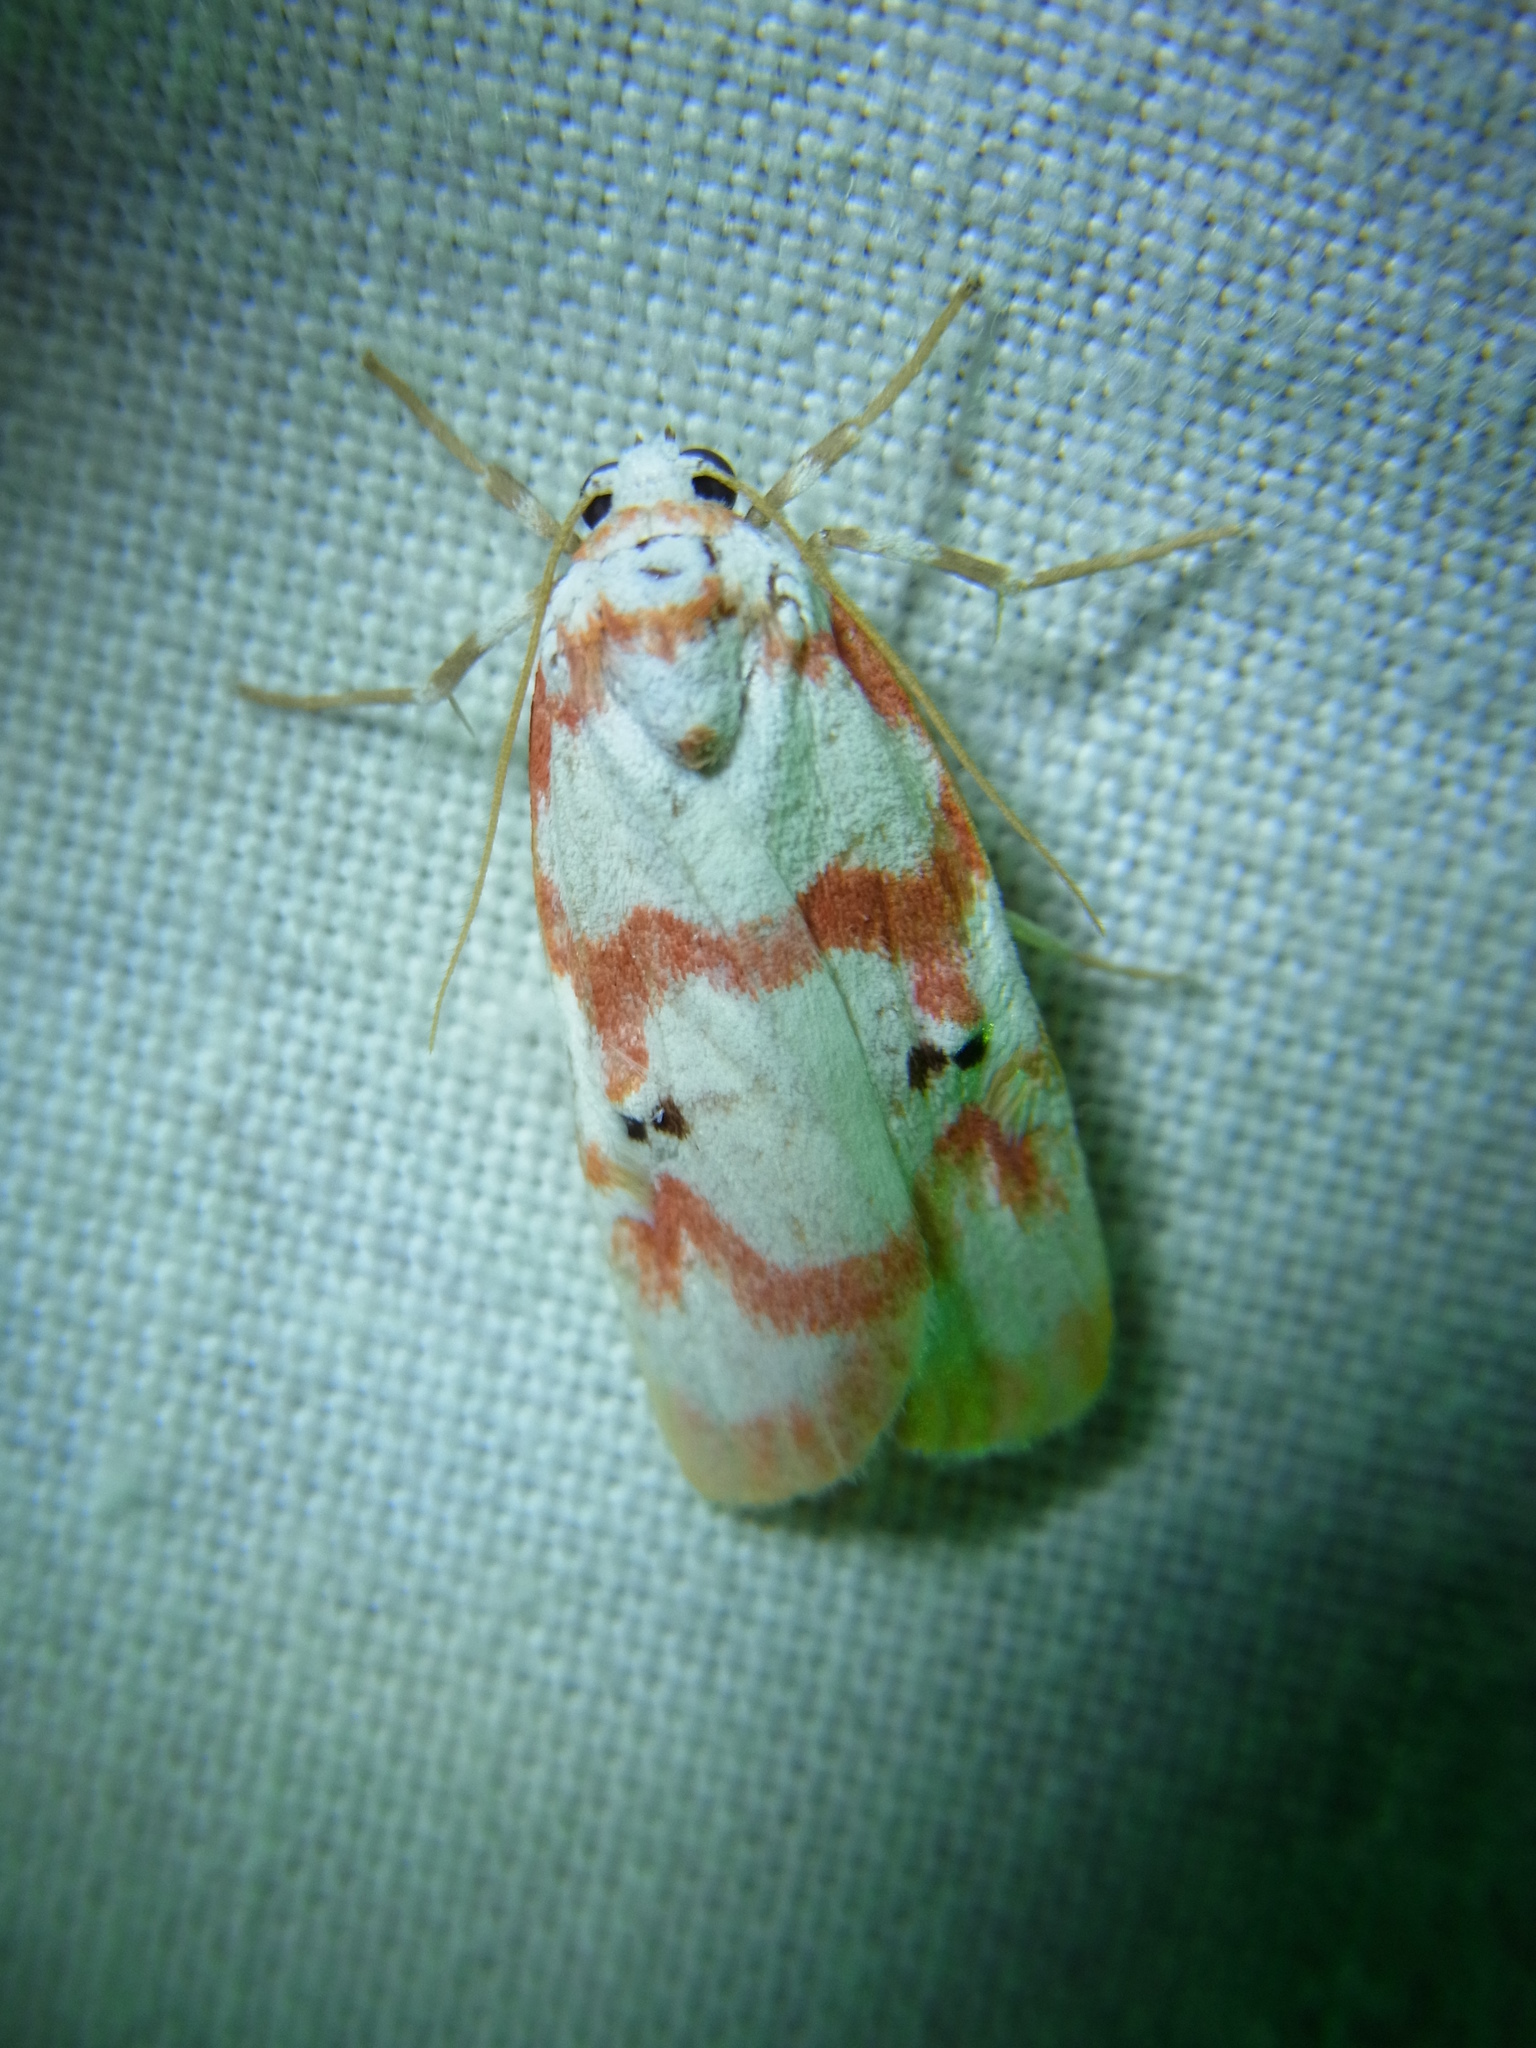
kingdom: Animalia
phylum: Arthropoda
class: Insecta
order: Lepidoptera
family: Erebidae
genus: Cyana
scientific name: Cyana hamata
